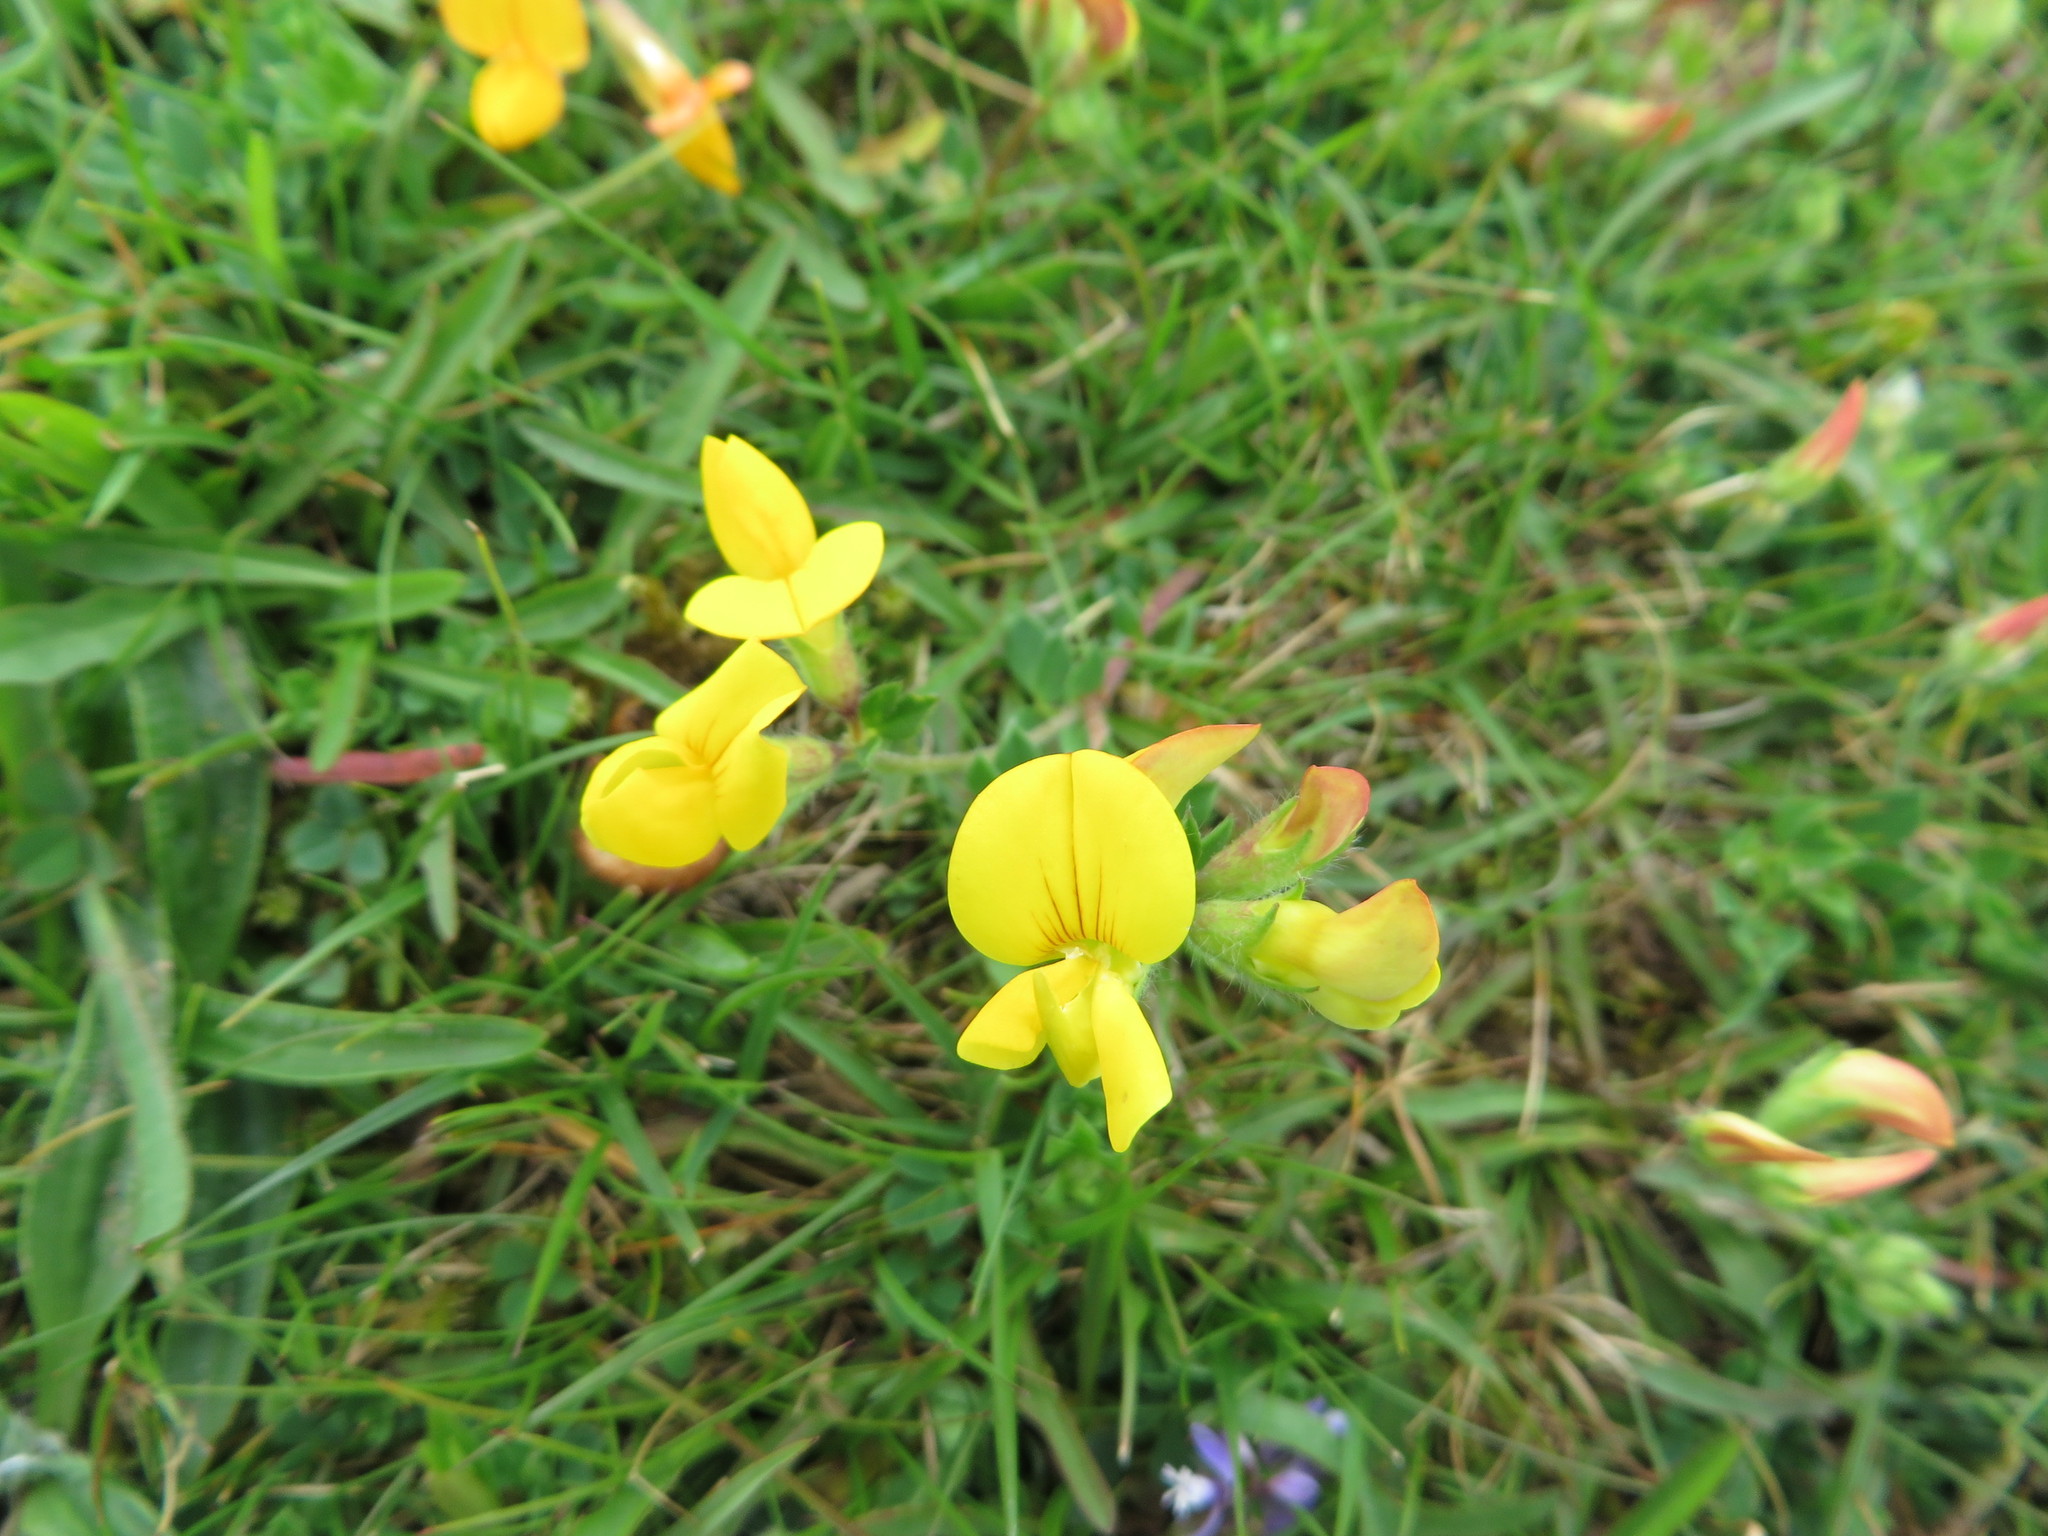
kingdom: Plantae
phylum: Tracheophyta
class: Magnoliopsida
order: Fabales
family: Fabaceae
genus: Lotus
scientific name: Lotus corniculatus
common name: Common bird's-foot-trefoil
